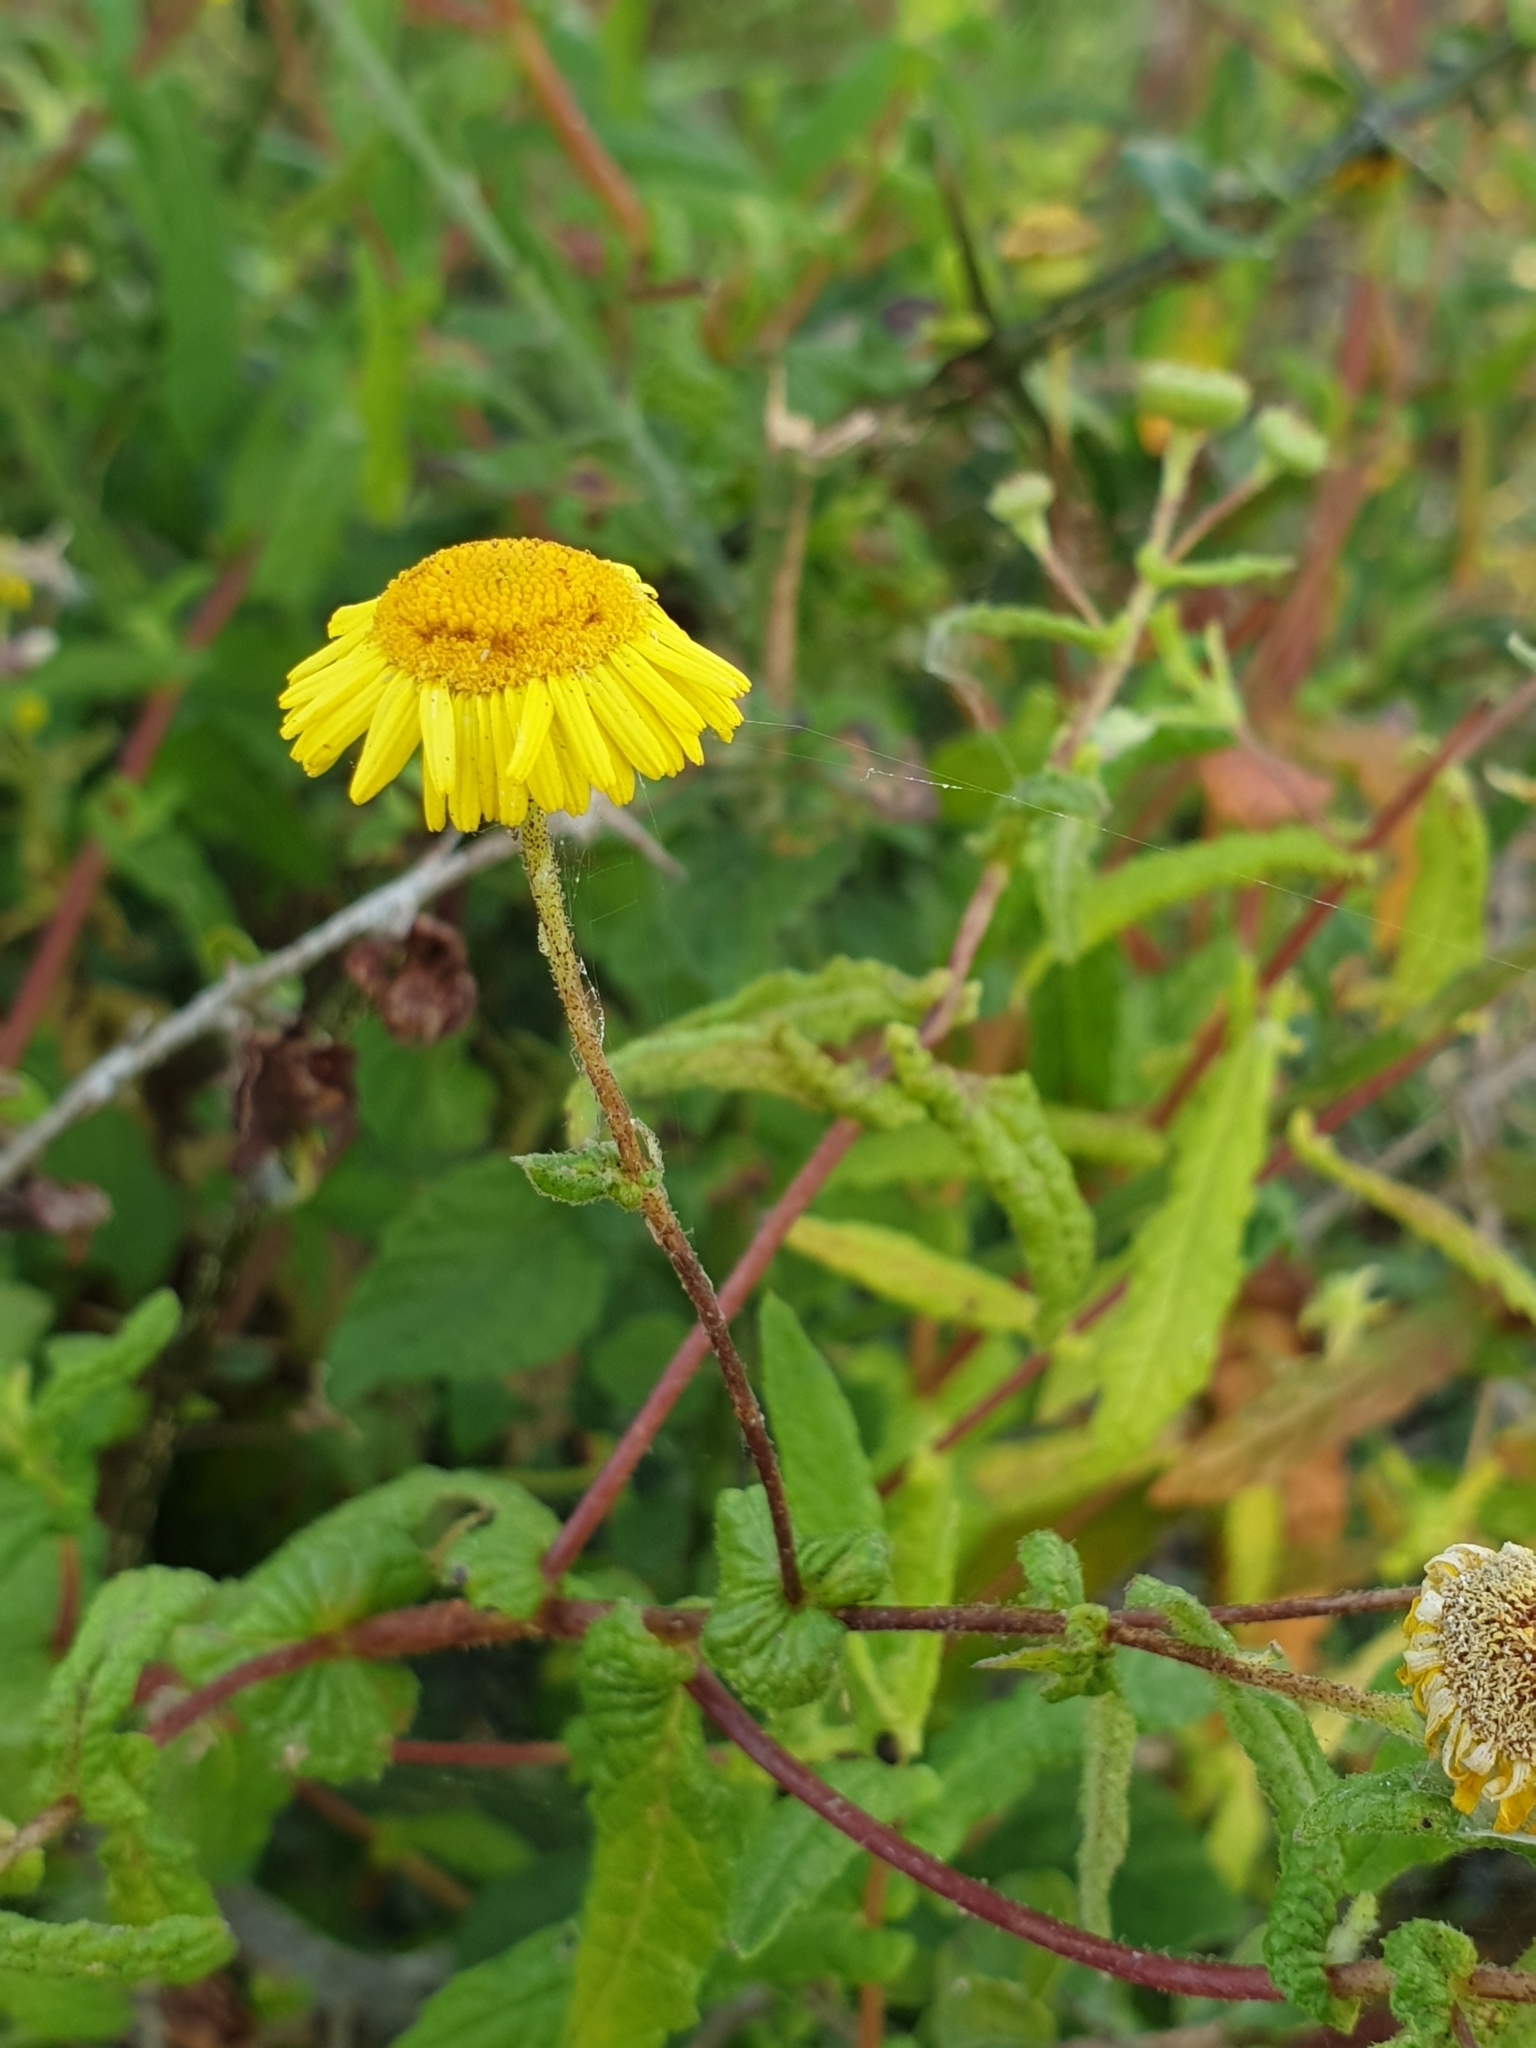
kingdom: Plantae
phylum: Tracheophyta
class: Magnoliopsida
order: Asterales
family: Asteraceae
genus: Vicoa
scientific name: Vicoa indica
